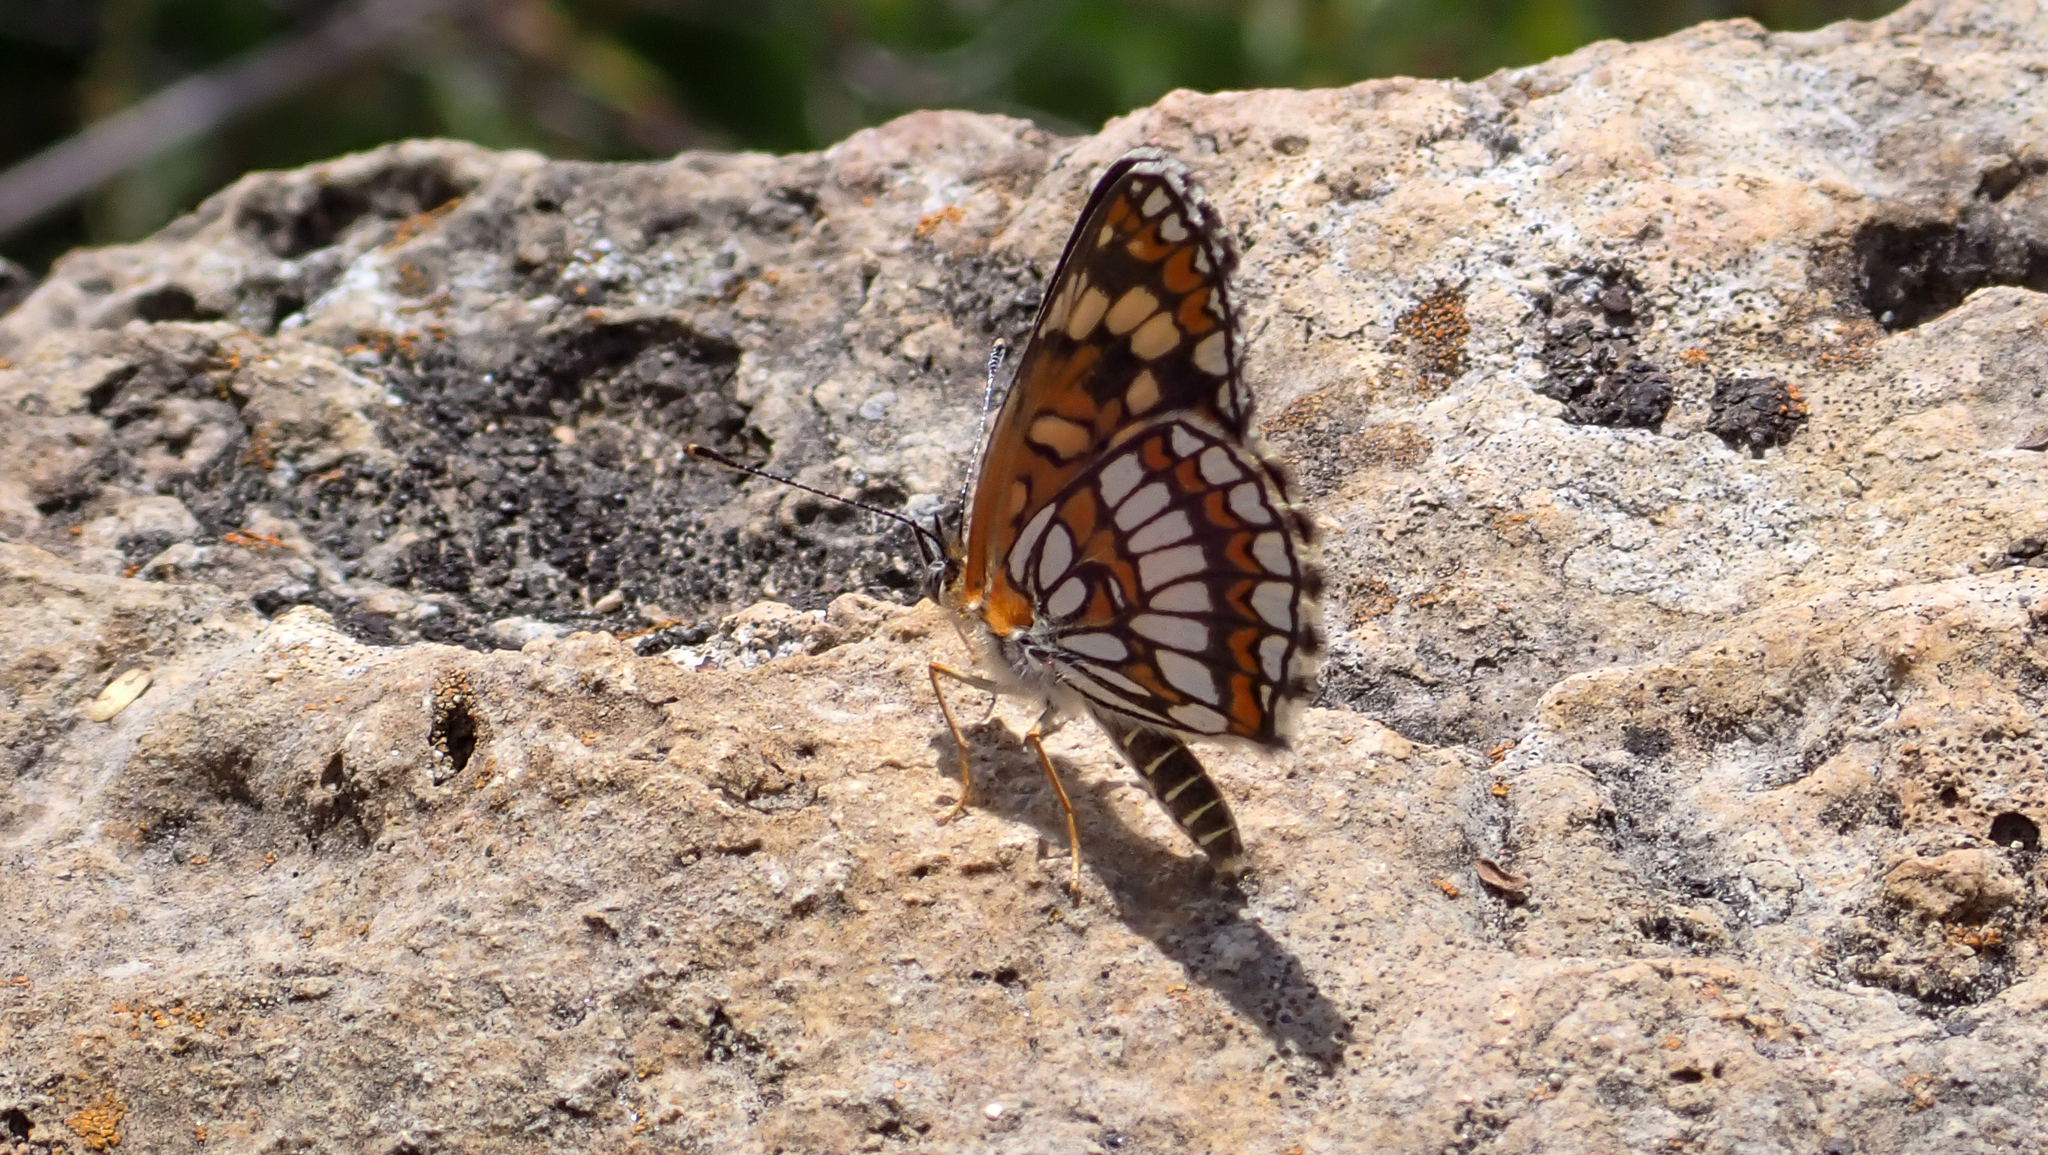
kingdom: Animalia
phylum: Arthropoda
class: Insecta
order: Lepidoptera
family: Nymphalidae
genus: Thessalia
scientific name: Thessalia theona
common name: Nymphalid moth
